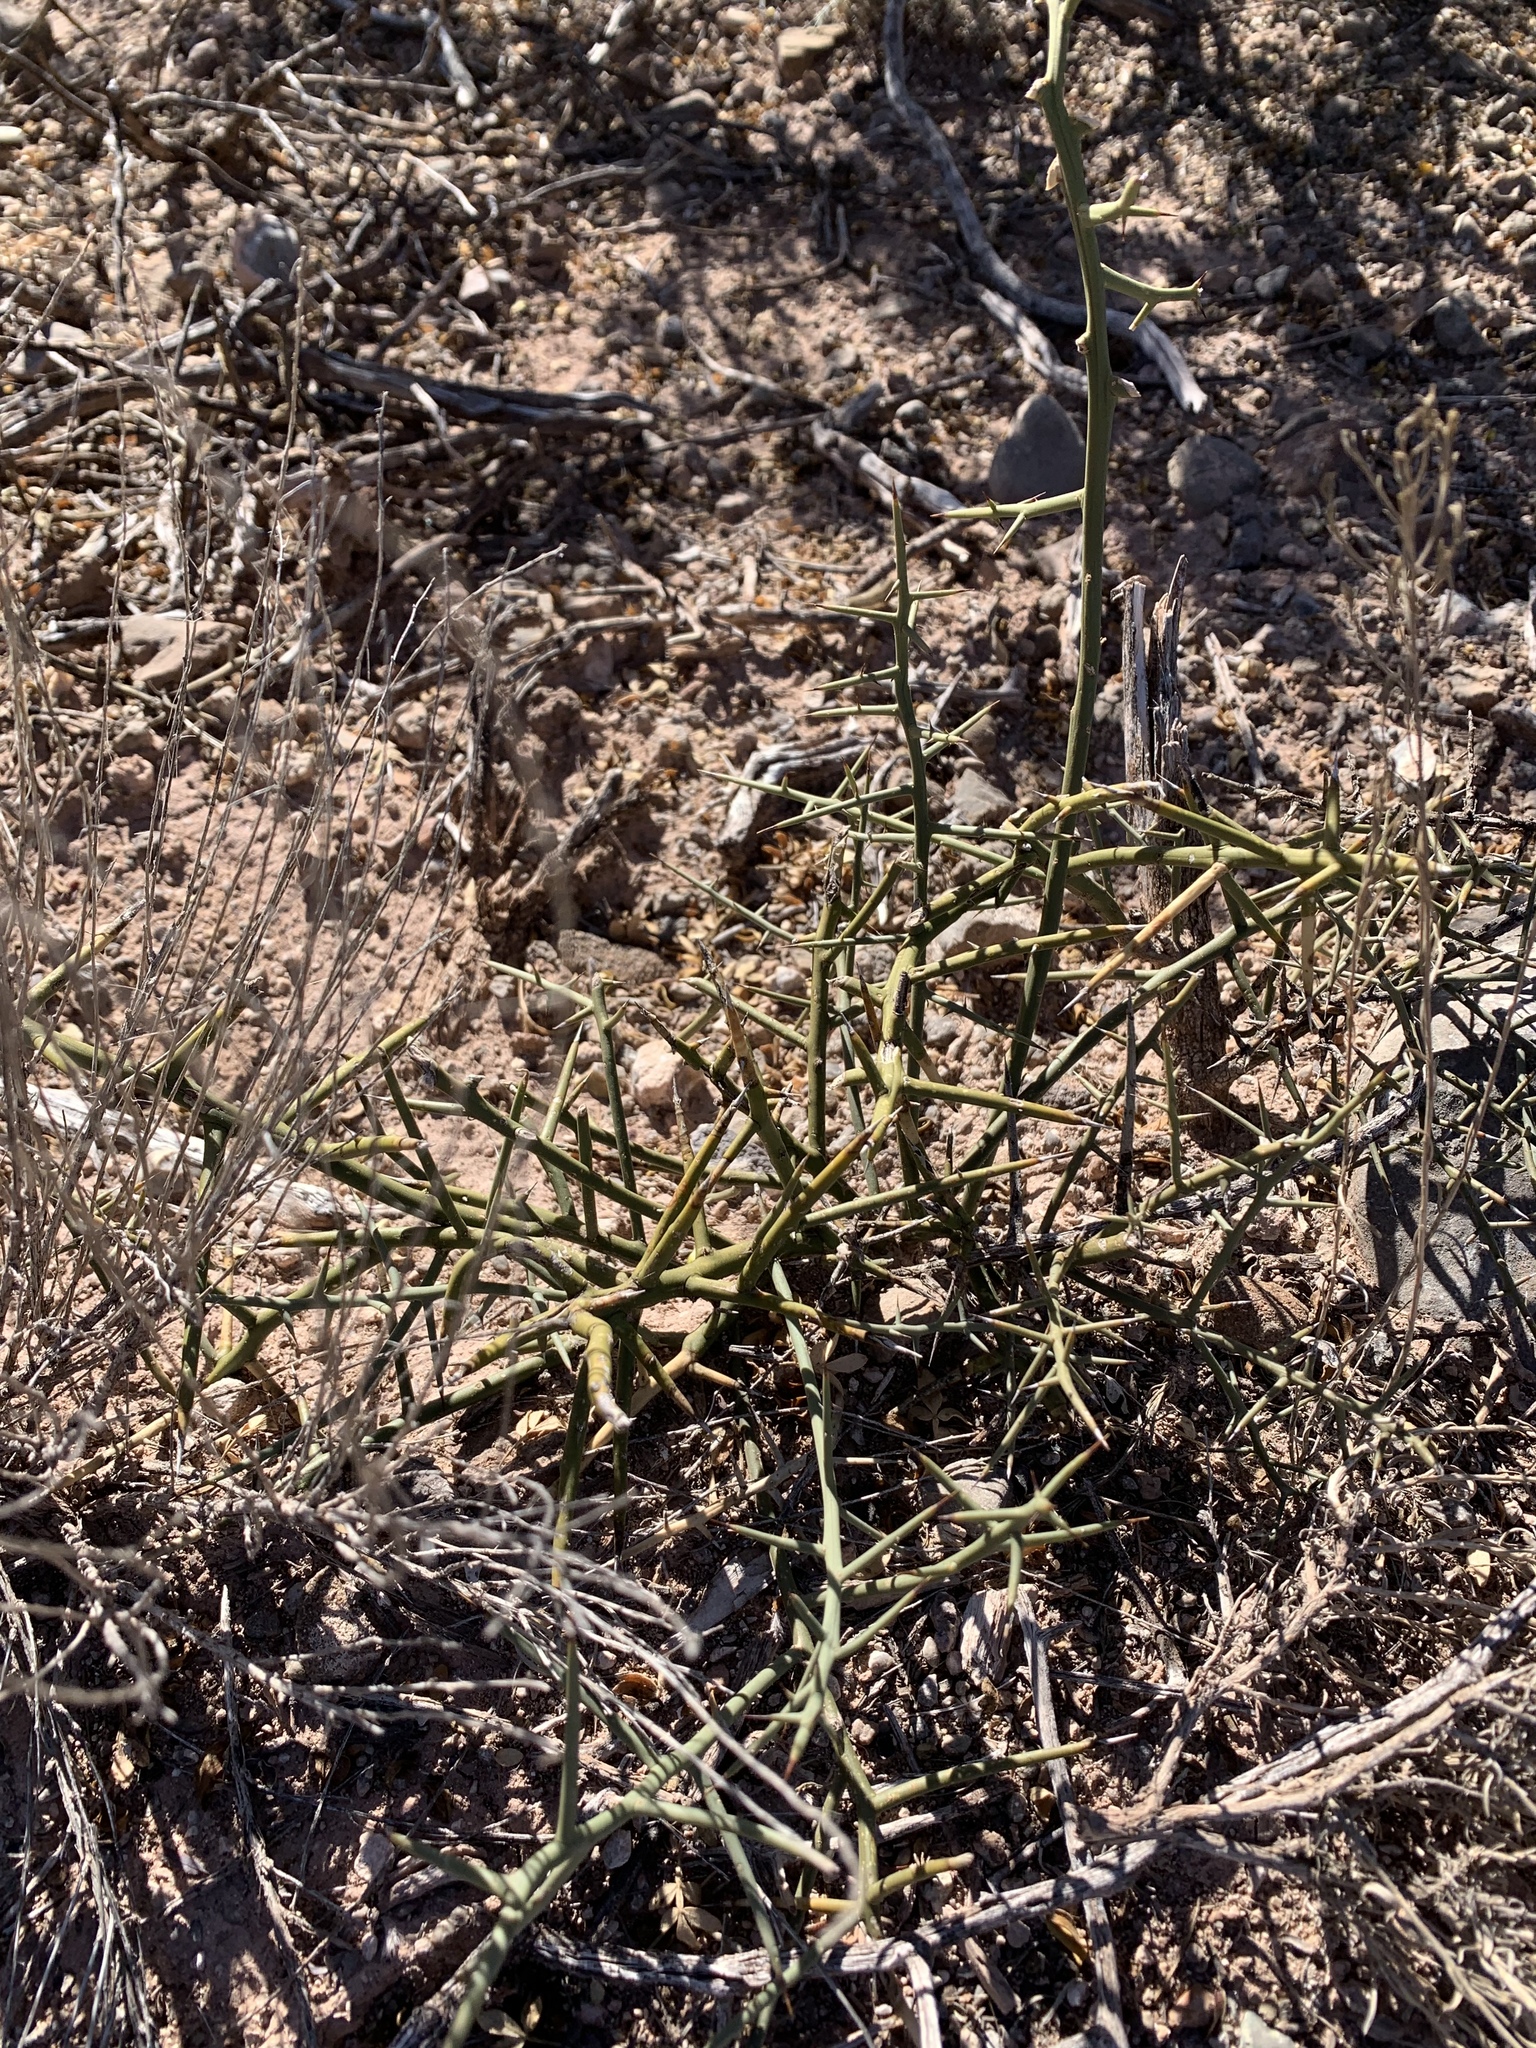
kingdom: Plantae
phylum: Tracheophyta
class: Magnoliopsida
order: Brassicales
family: Koeberliniaceae
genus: Koeberlinia
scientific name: Koeberlinia spinosa
